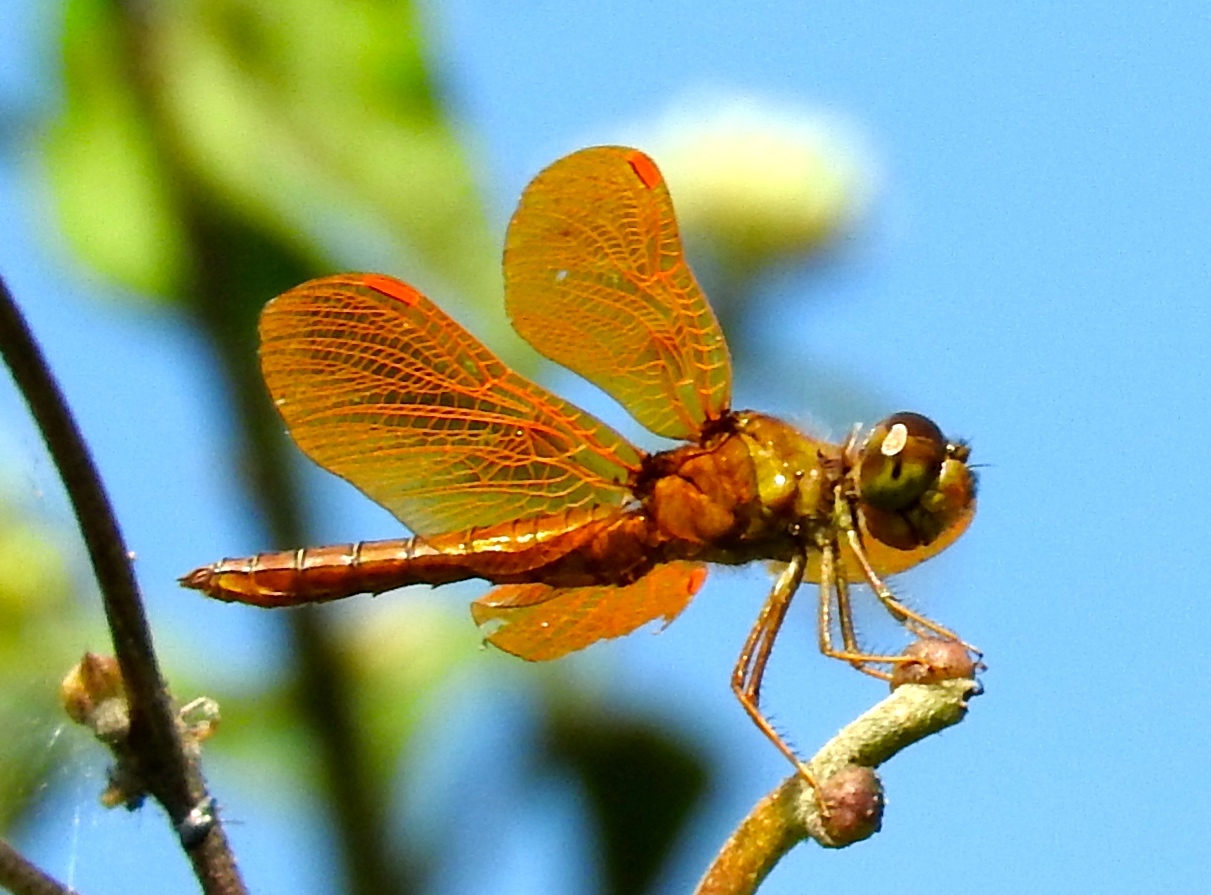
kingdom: Animalia
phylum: Arthropoda
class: Insecta
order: Odonata
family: Libellulidae
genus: Perithemis
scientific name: Perithemis
